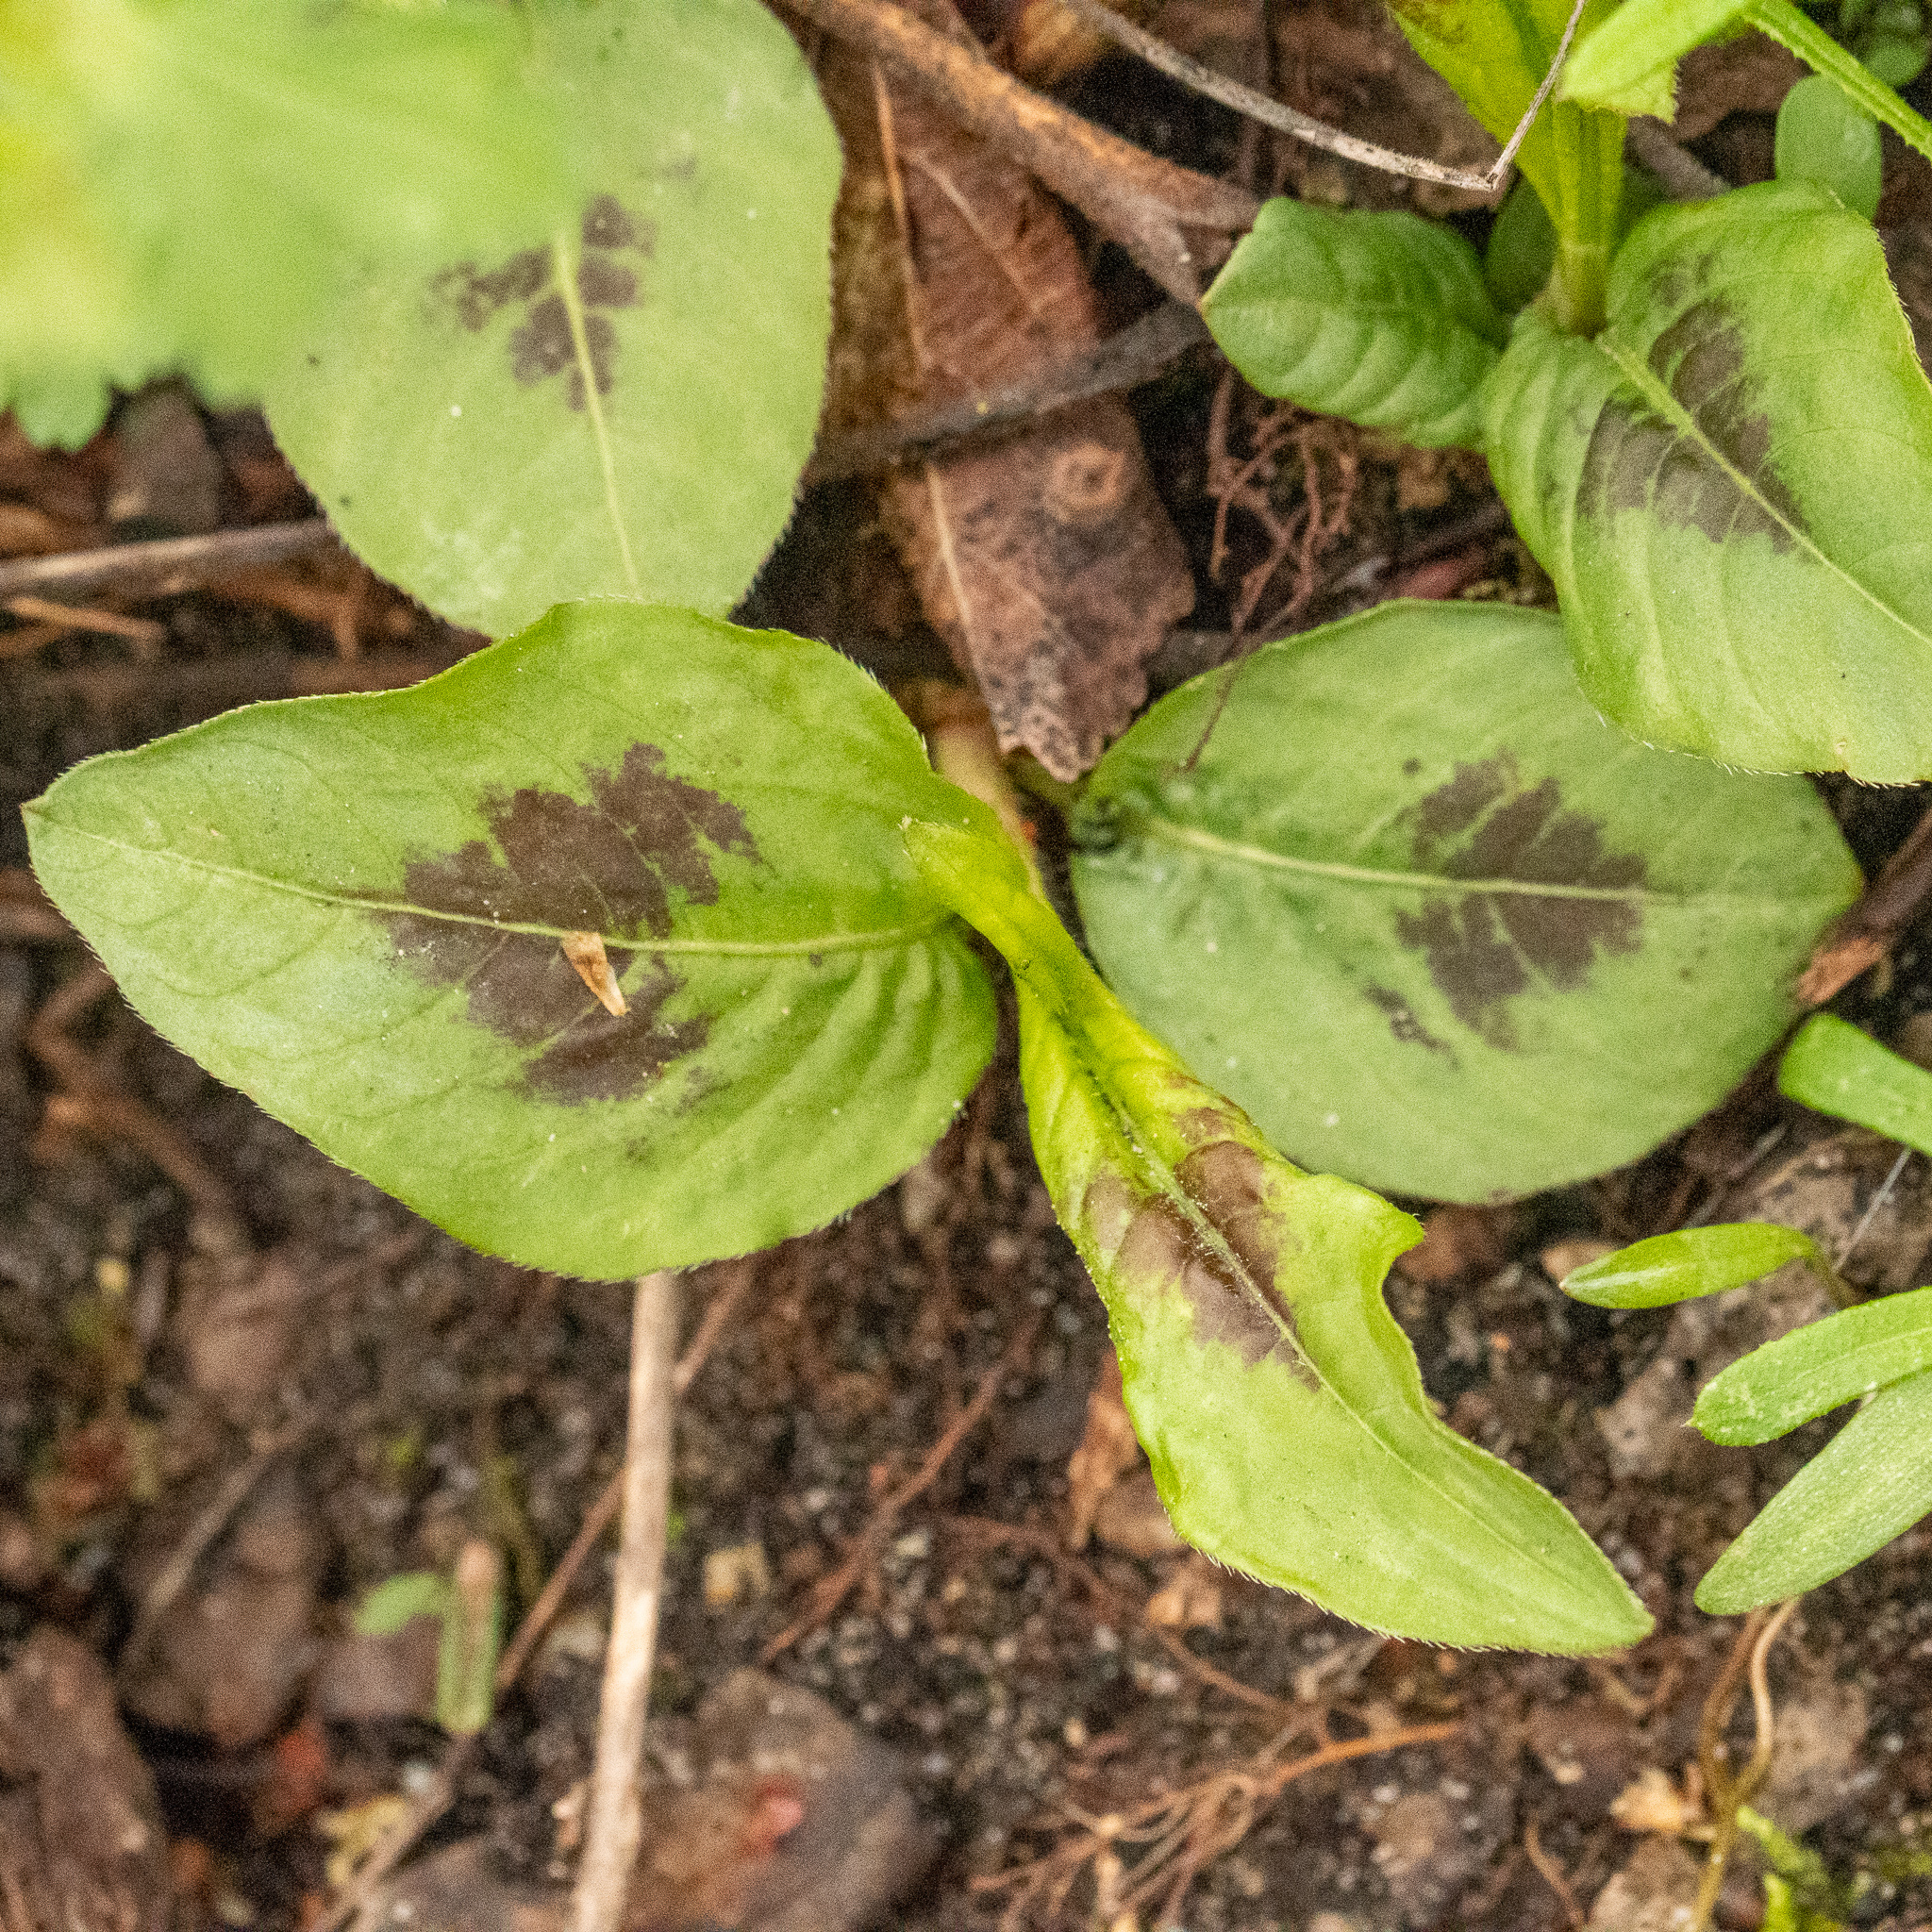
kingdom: Plantae
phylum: Tracheophyta
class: Magnoliopsida
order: Caryophyllales
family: Polygonaceae
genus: Persicaria
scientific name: Persicaria virginiana
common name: Jumpseed
